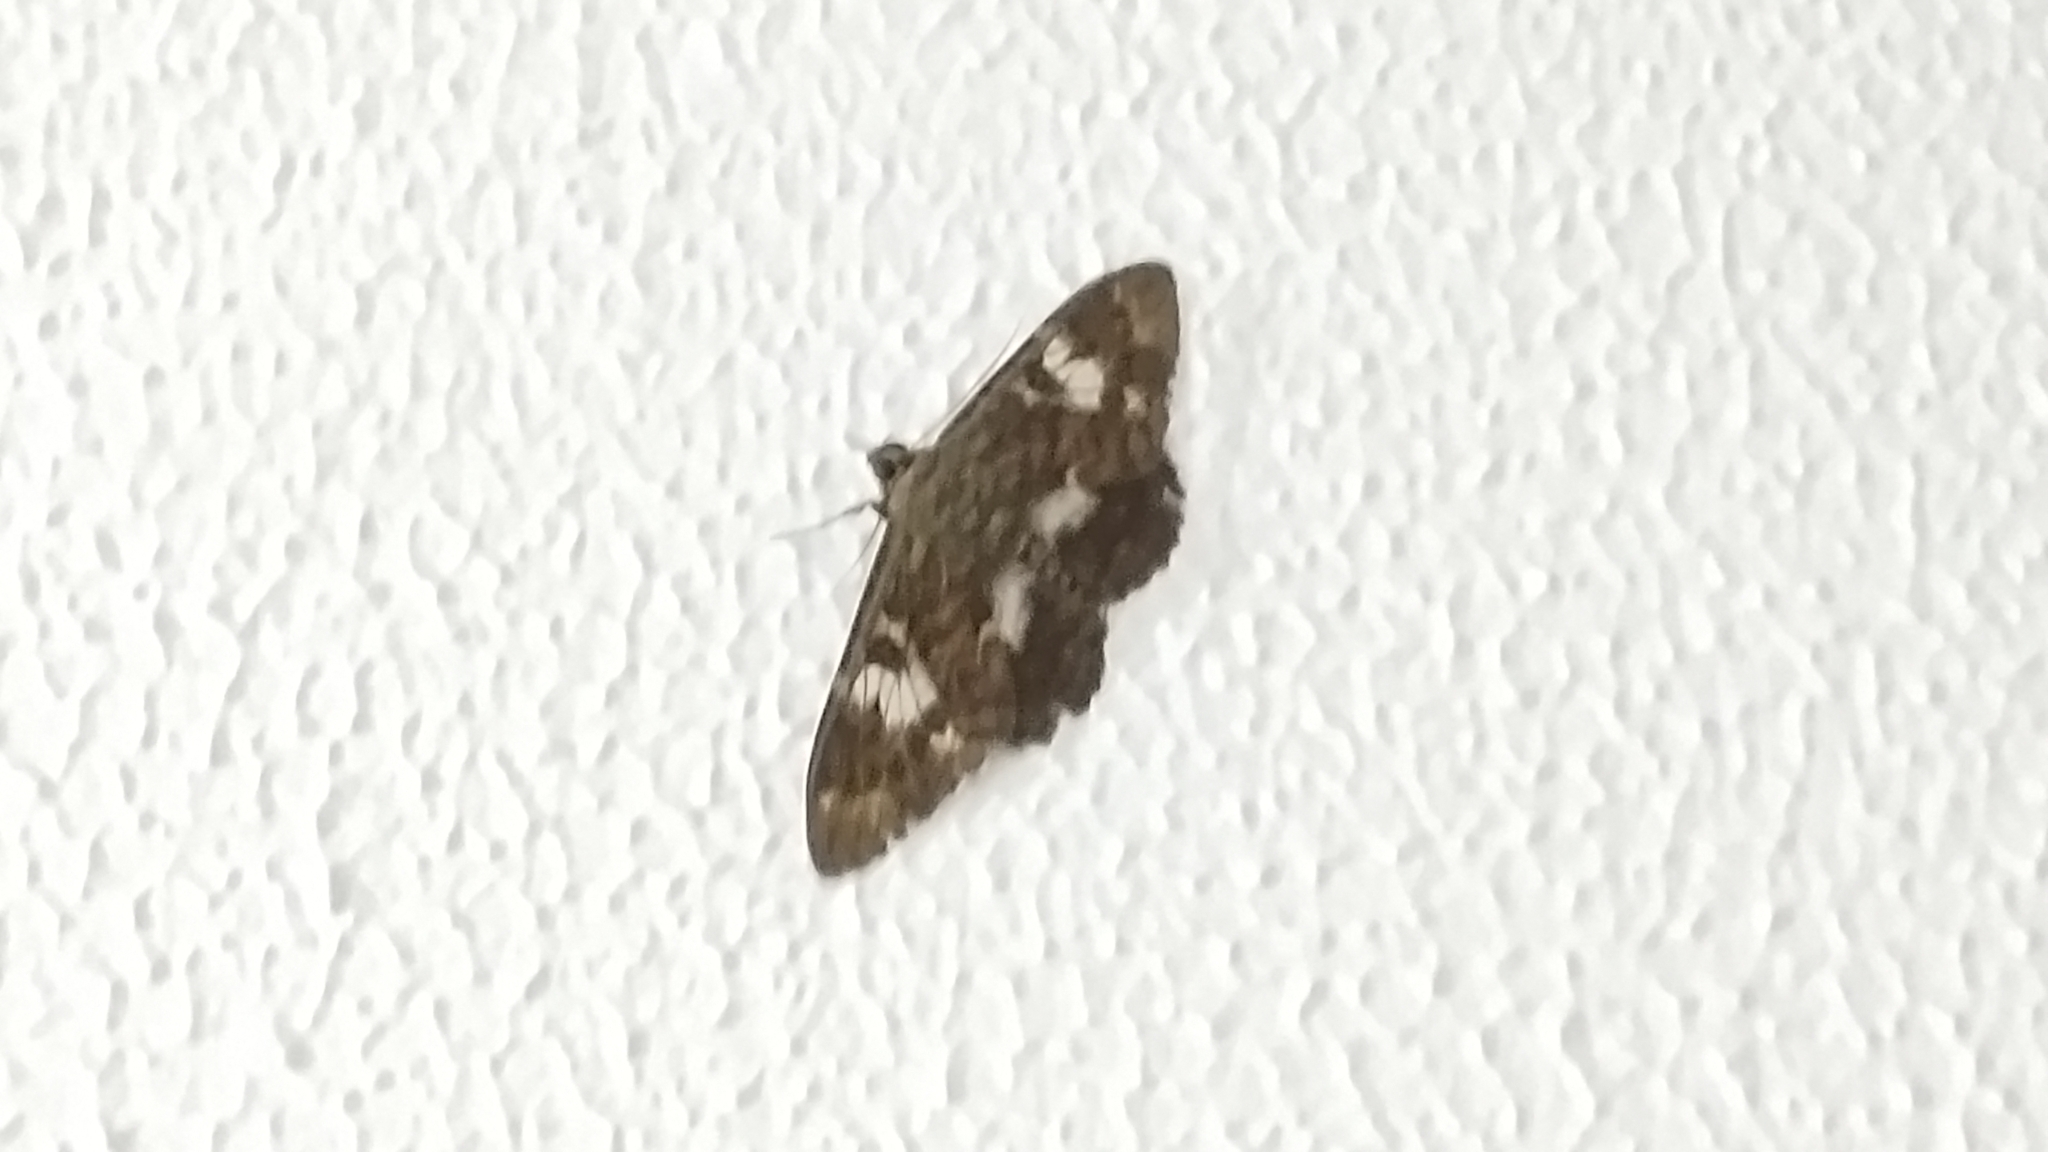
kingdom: Animalia
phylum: Arthropoda
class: Insecta
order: Lepidoptera
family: Erebidae
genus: Letis
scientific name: Letis specularis
